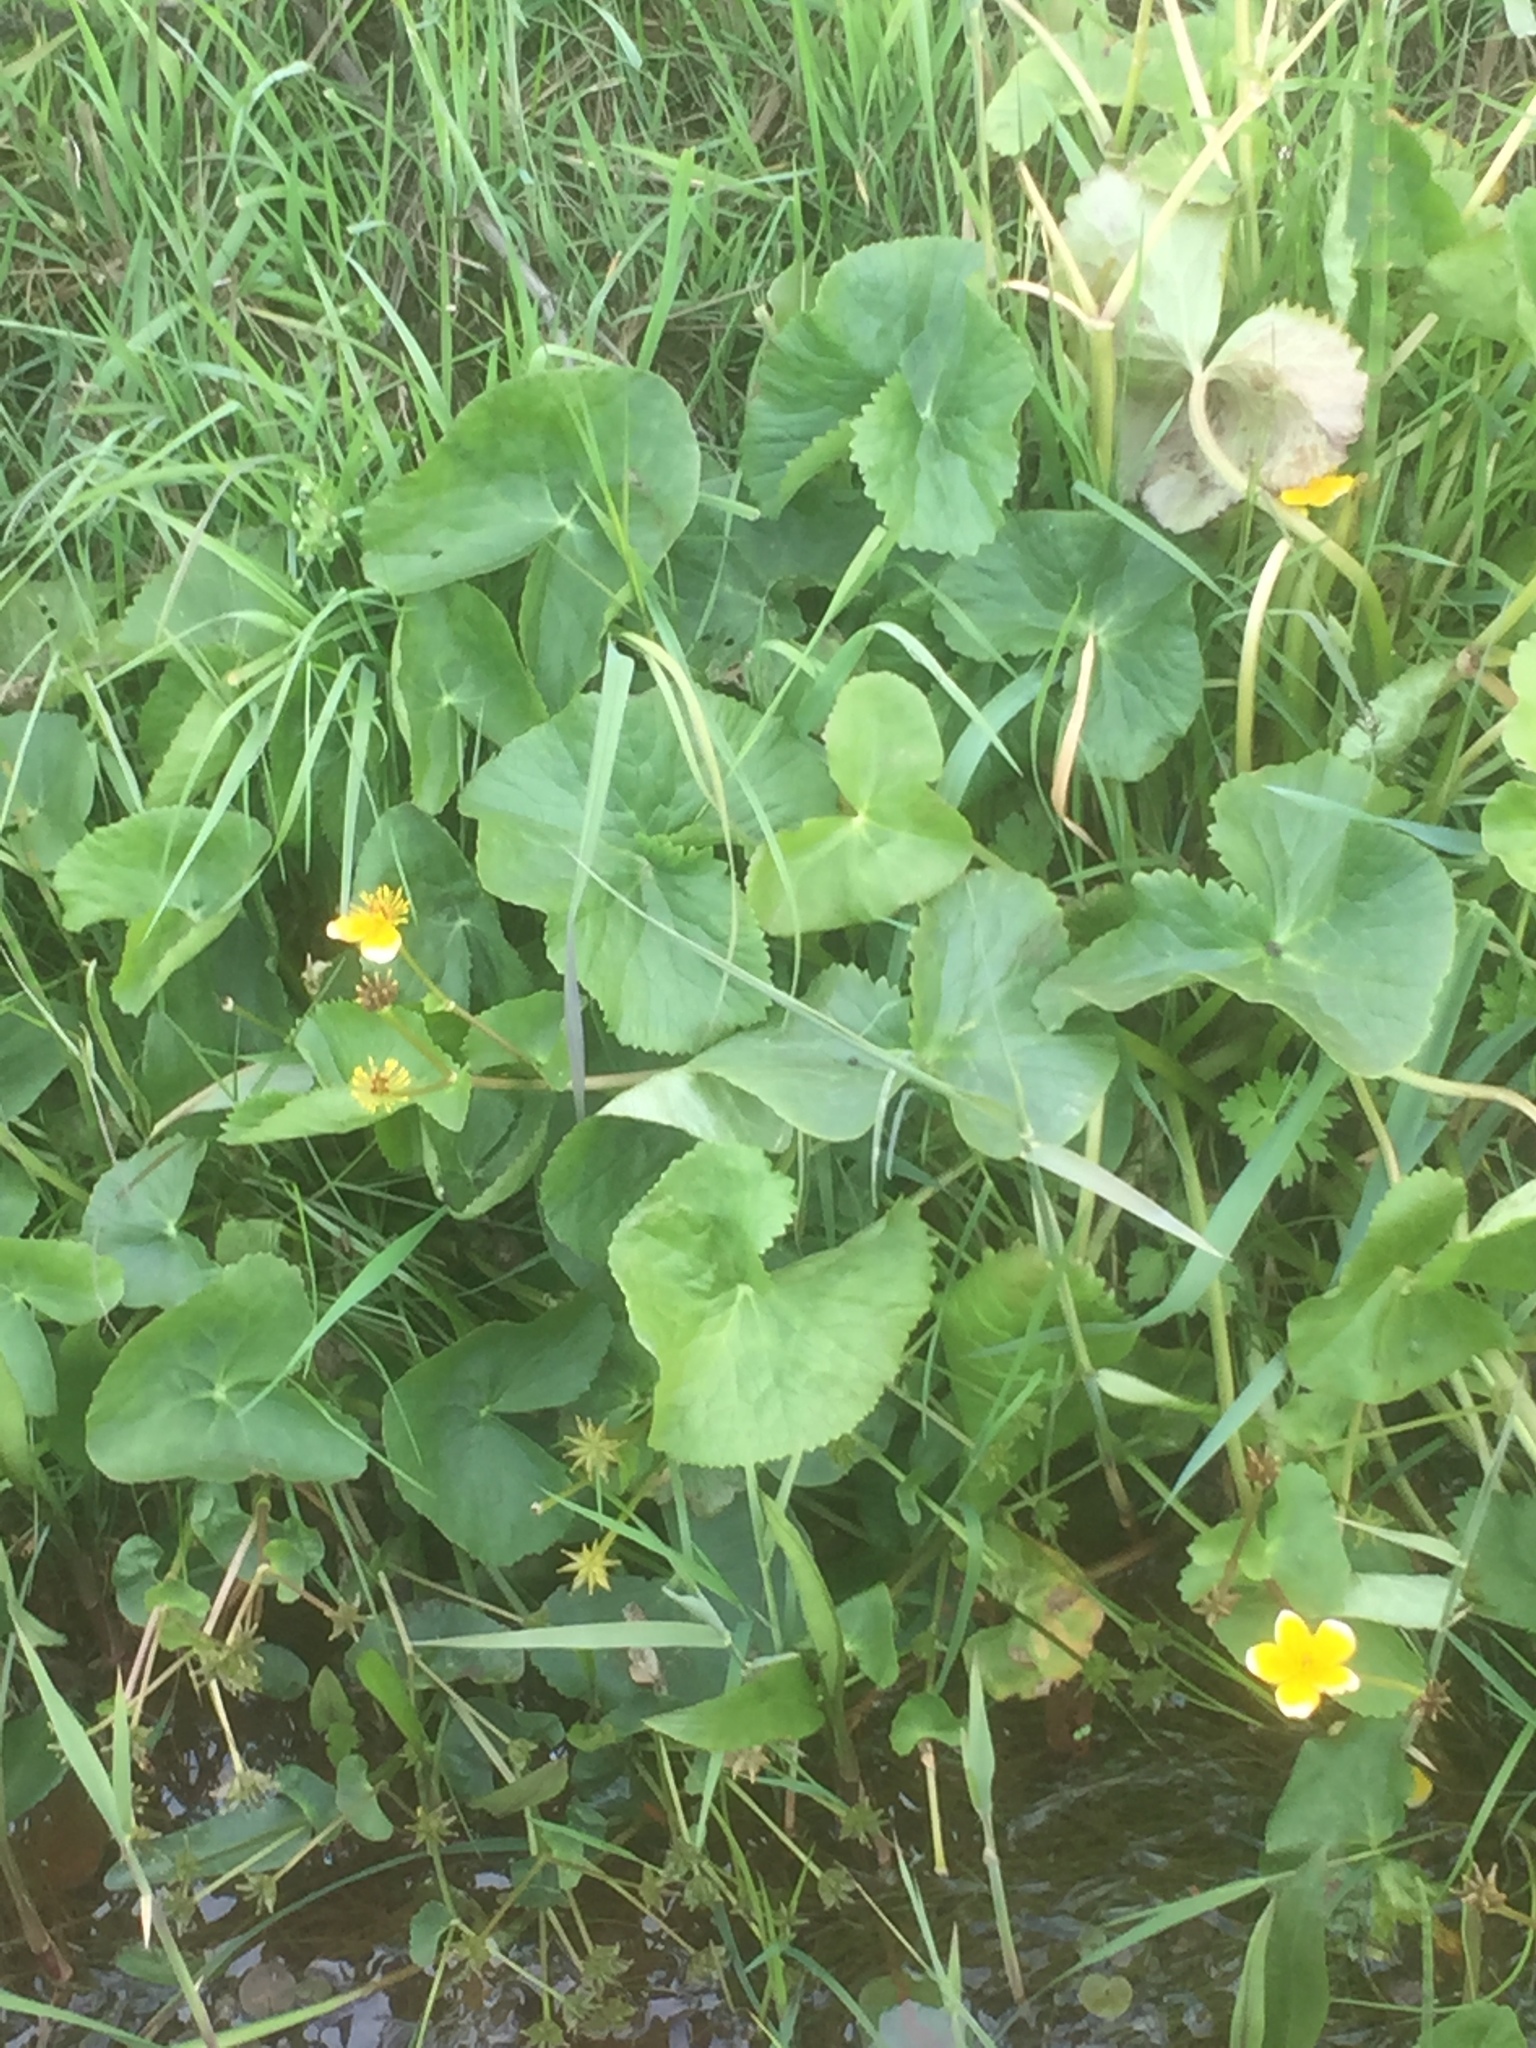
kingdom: Plantae
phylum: Tracheophyta
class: Magnoliopsida
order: Ranunculales
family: Ranunculaceae
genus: Caltha
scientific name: Caltha palustris
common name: Marsh marigold
